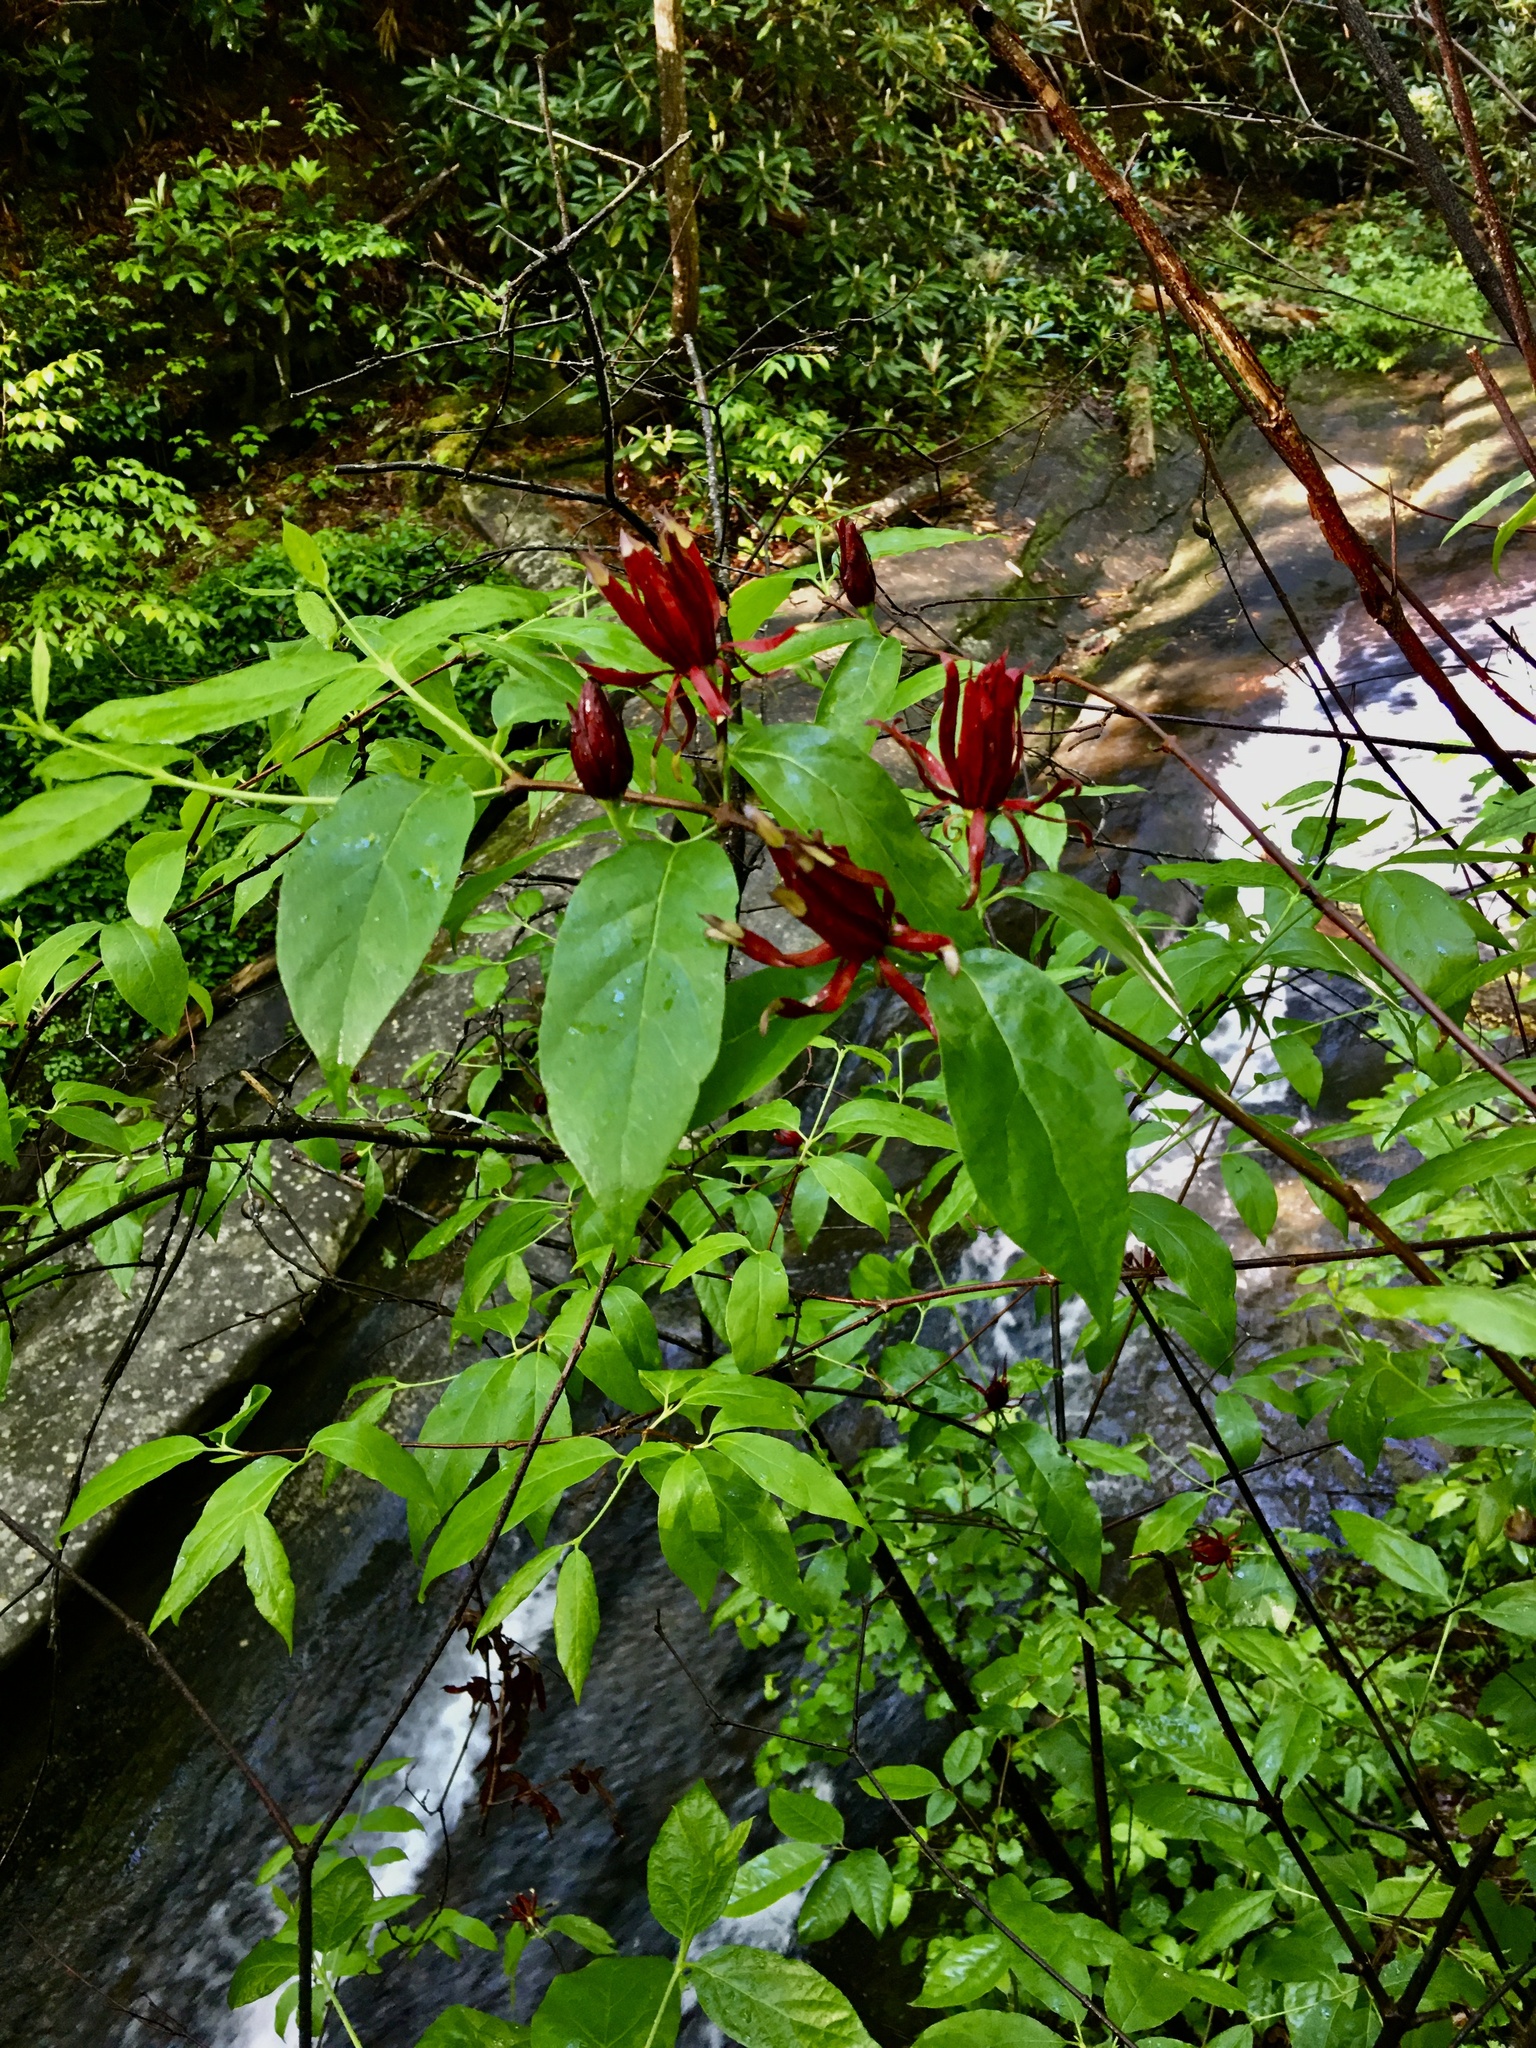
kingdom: Plantae
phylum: Tracheophyta
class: Magnoliopsida
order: Laurales
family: Calycanthaceae
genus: Calycanthus
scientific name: Calycanthus floridus
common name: Carolina-allspice
